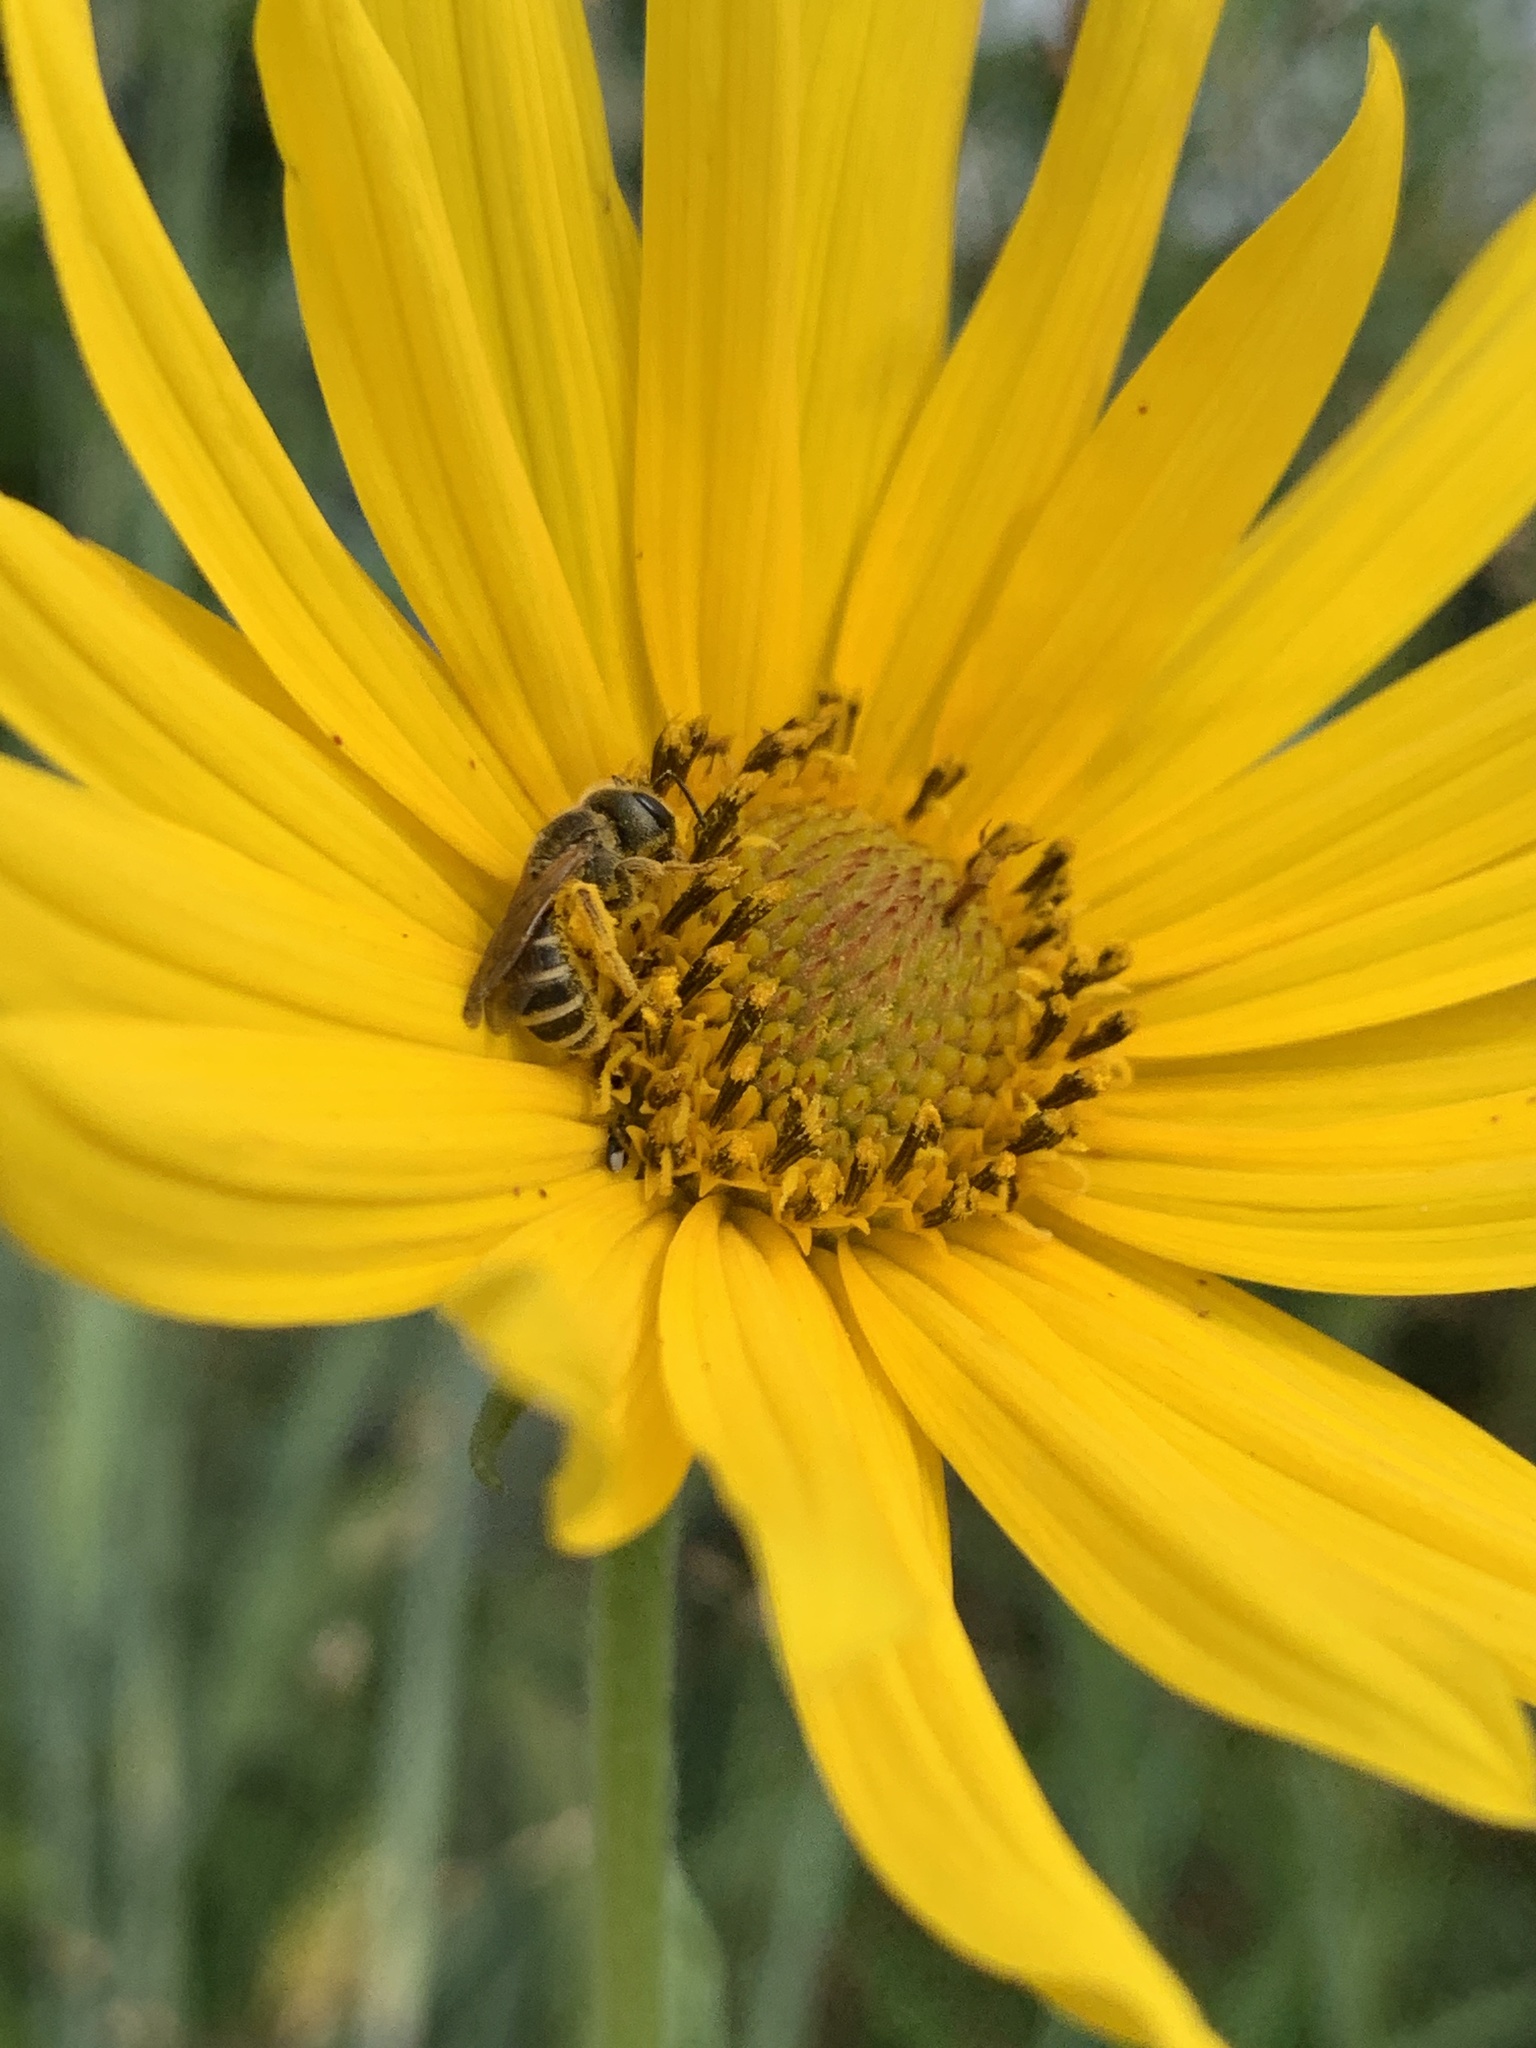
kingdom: Animalia
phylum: Arthropoda
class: Insecta
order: Hymenoptera
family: Halictidae
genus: Halictus
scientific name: Halictus ligatus
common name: Ligated furrow bee
